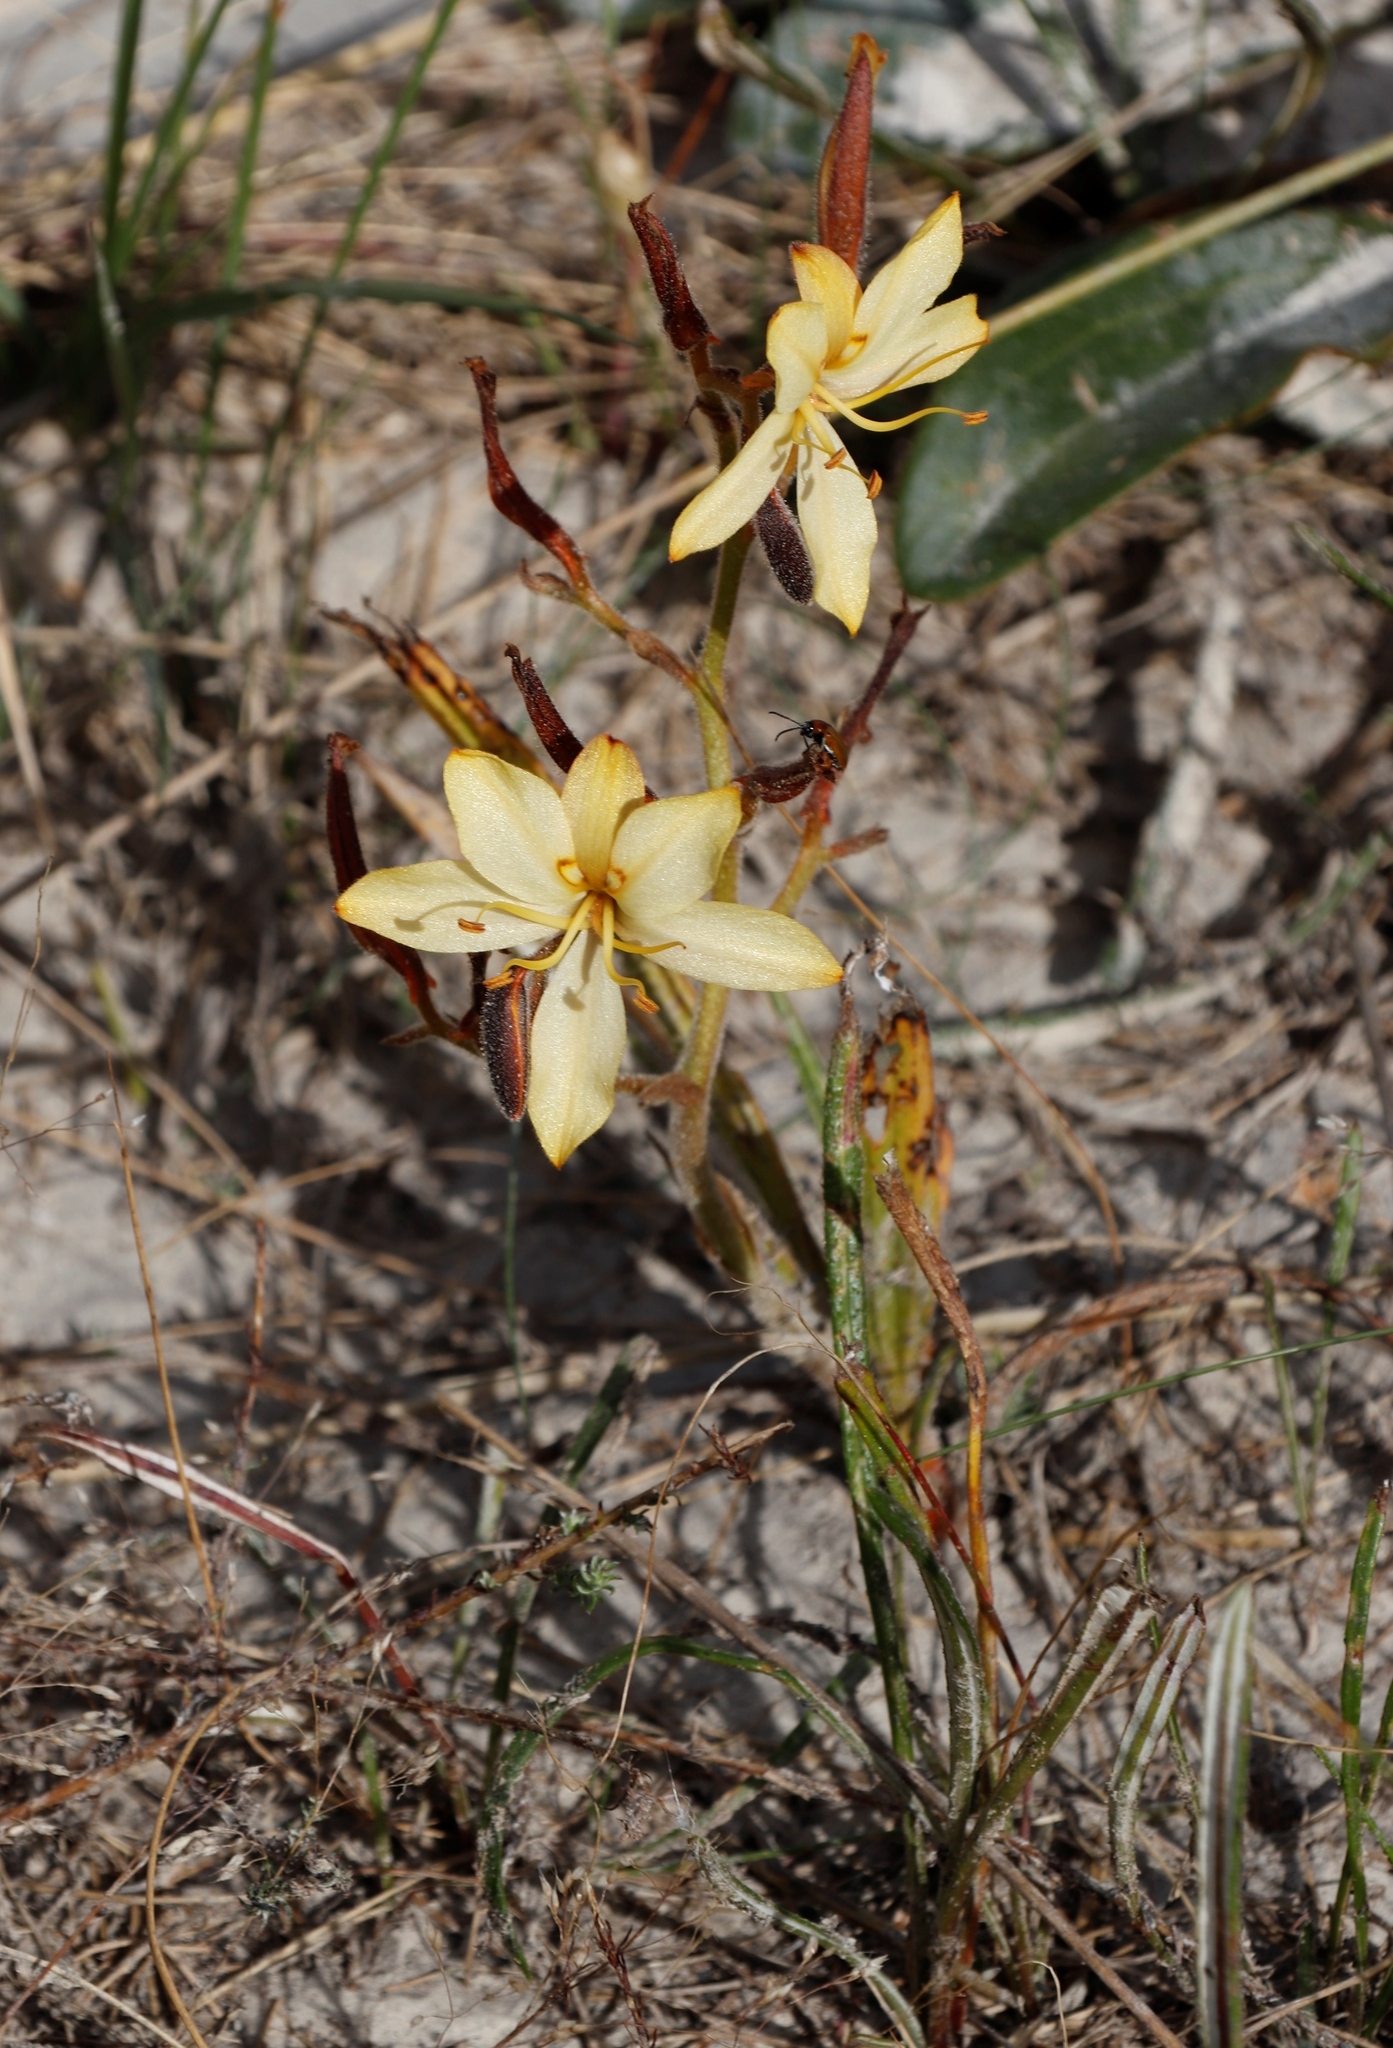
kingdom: Plantae
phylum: Tracheophyta
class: Liliopsida
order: Commelinales
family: Haemodoraceae
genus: Wachendorfia
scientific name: Wachendorfia paniculata
